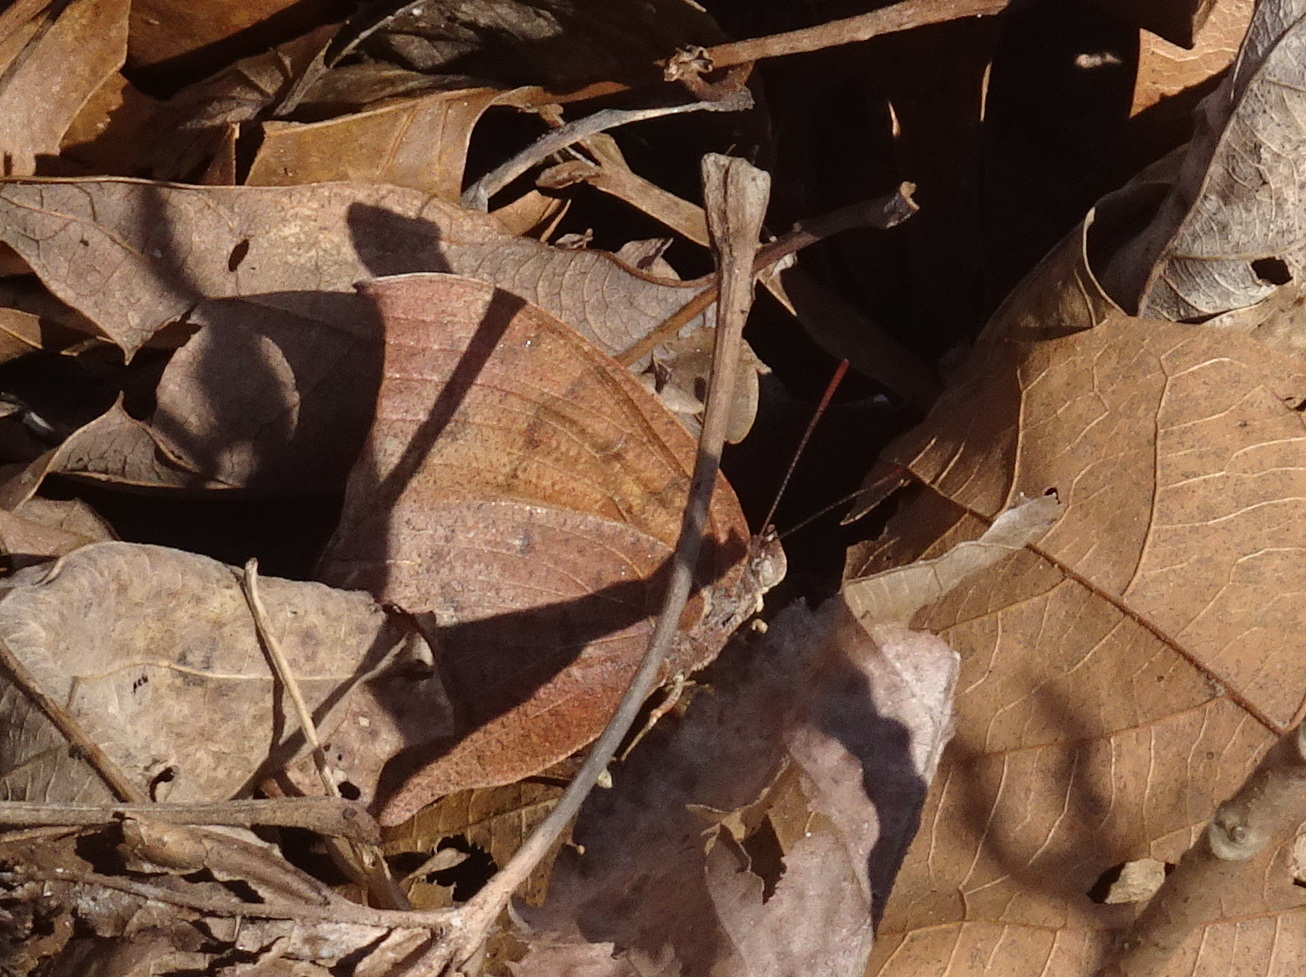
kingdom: Animalia
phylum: Arthropoda
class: Insecta
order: Lepidoptera
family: Nymphalidae
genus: Anaea
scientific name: Anaea andria
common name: Goatweed leafwing
